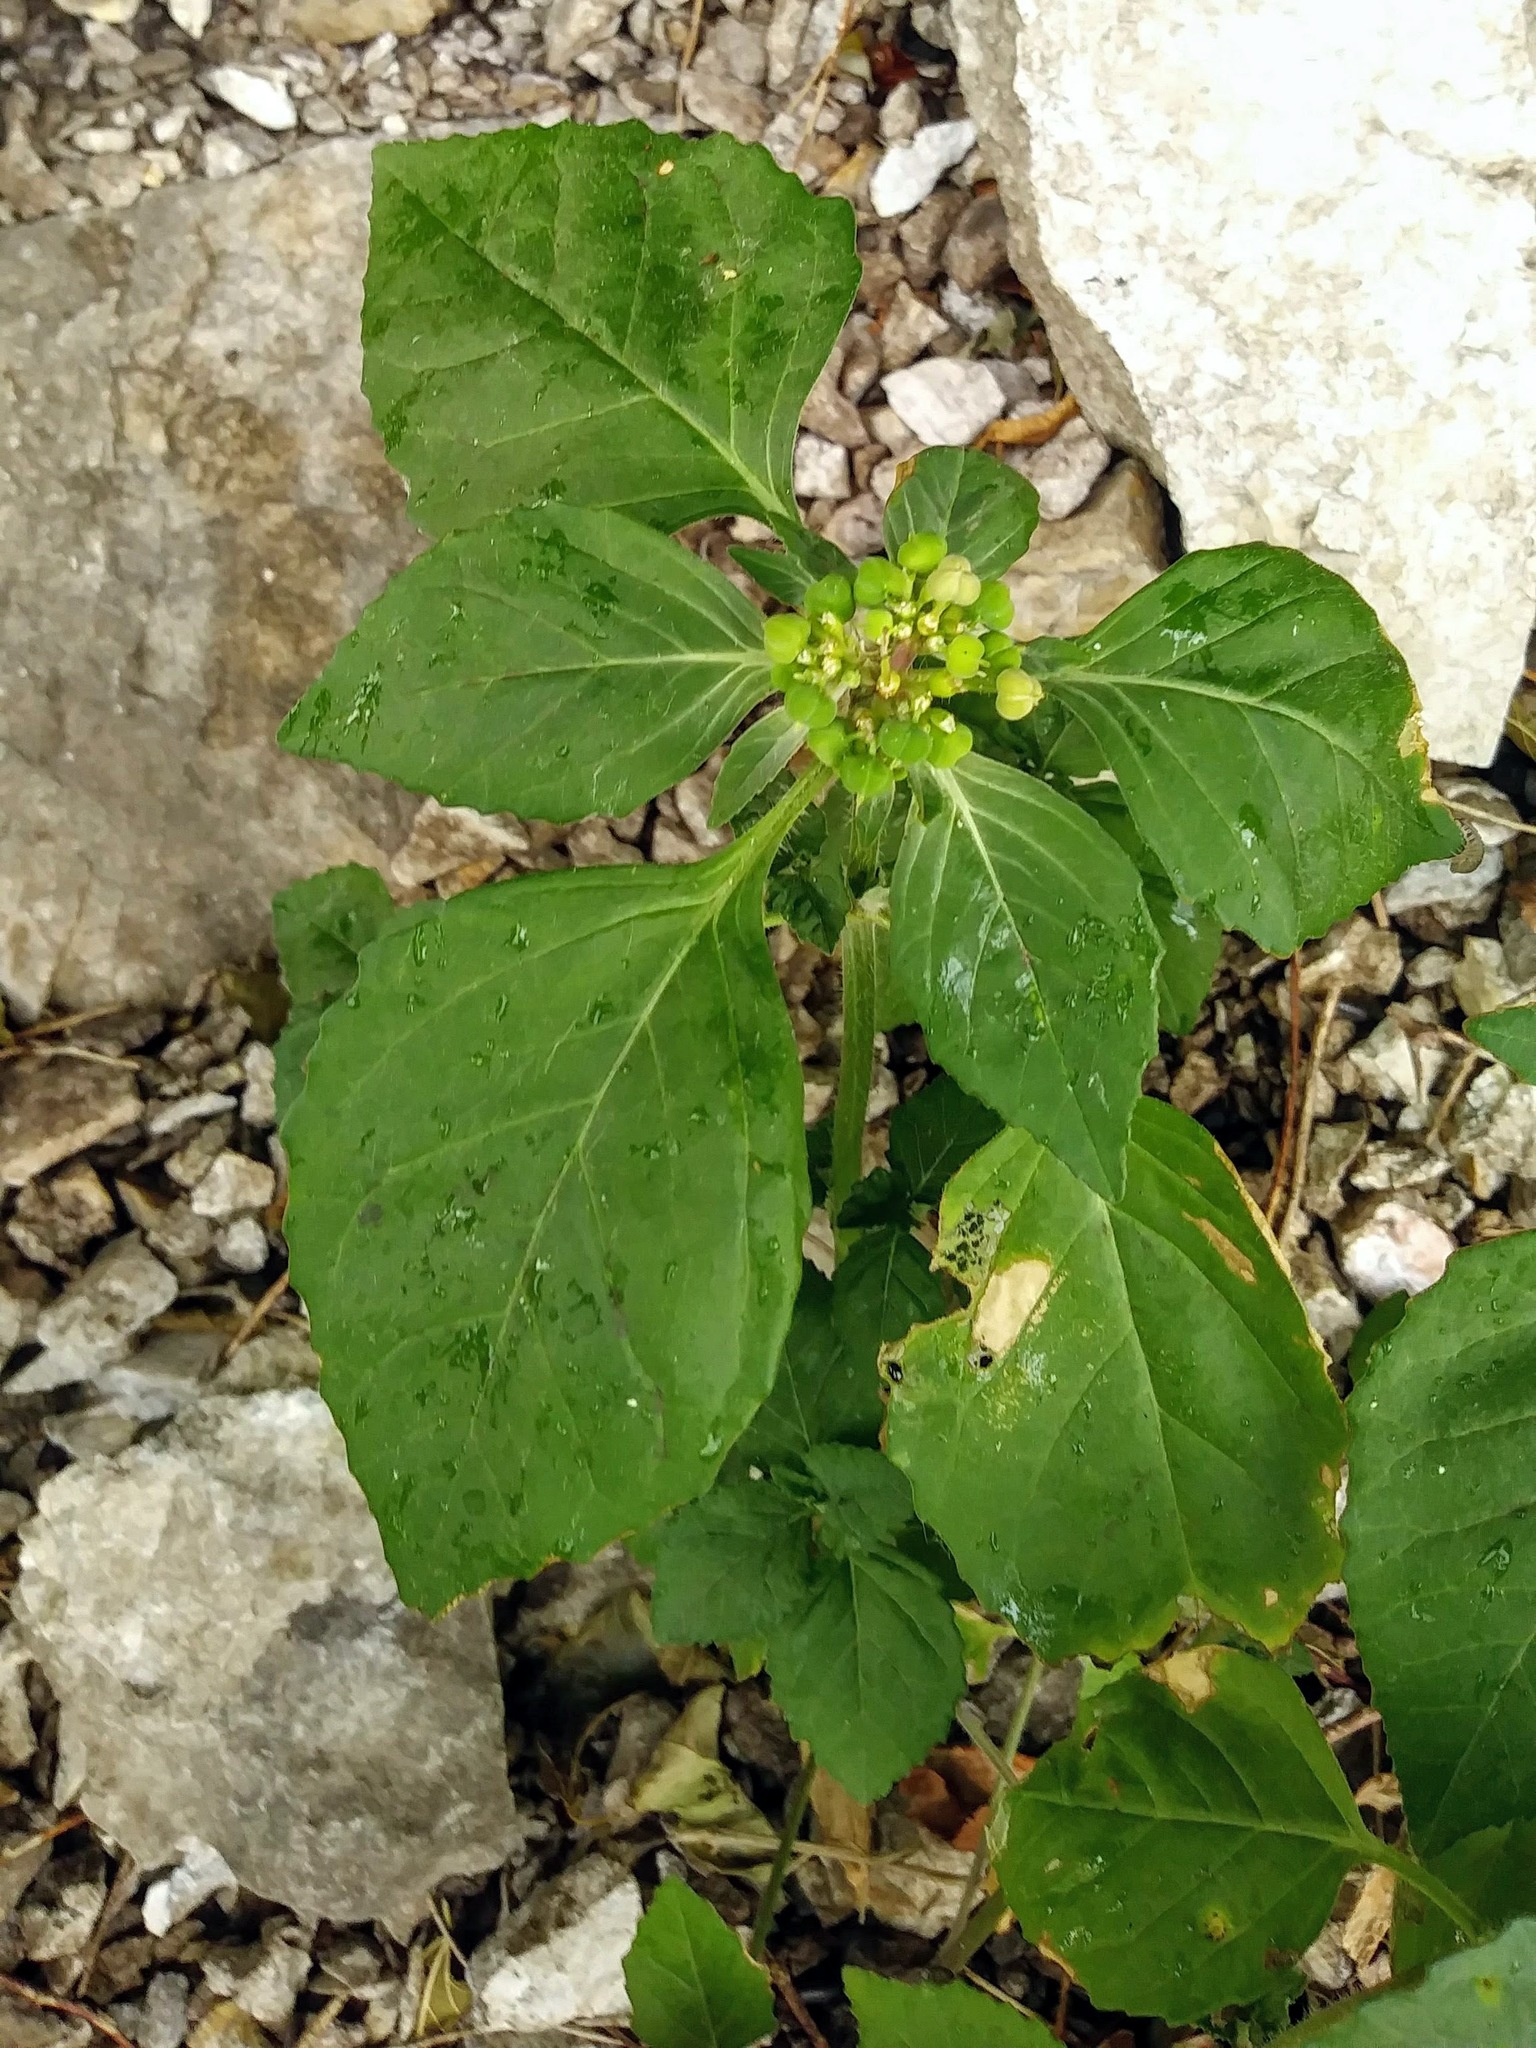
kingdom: Plantae
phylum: Tracheophyta
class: Magnoliopsida
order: Malpighiales
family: Euphorbiaceae
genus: Euphorbia
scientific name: Euphorbia dentata
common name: Dentate spurge
